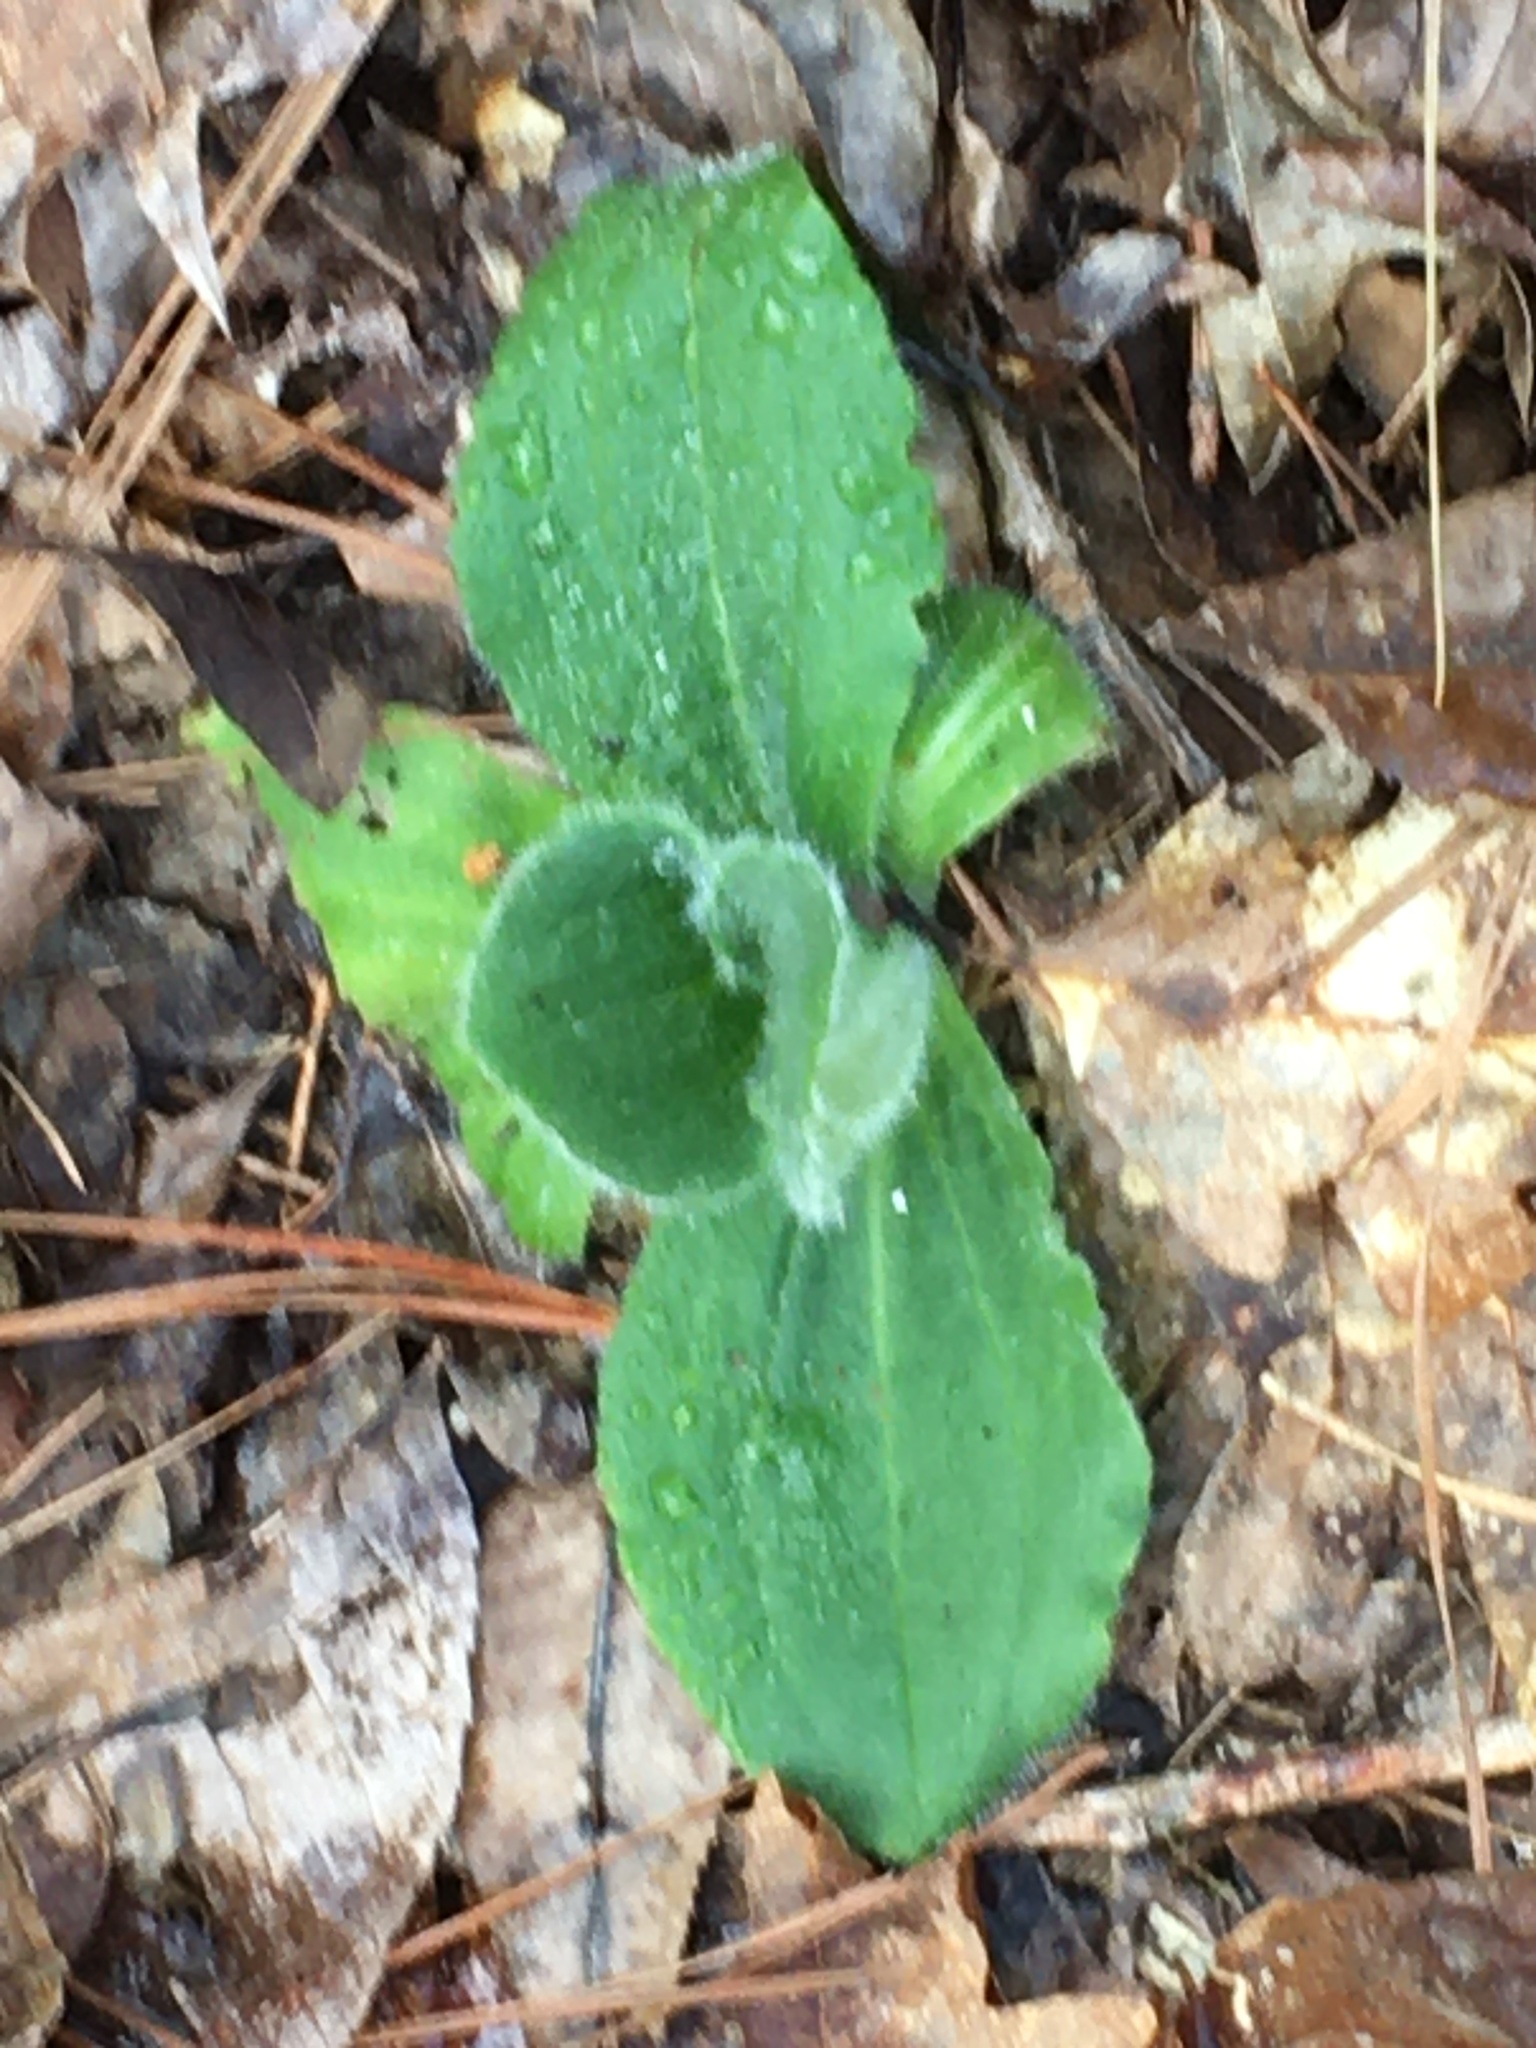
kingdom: Plantae
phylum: Tracheophyta
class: Magnoliopsida
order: Asterales
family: Asteraceae
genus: Arnica
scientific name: Arnica acaulis
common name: Common leopardbane
